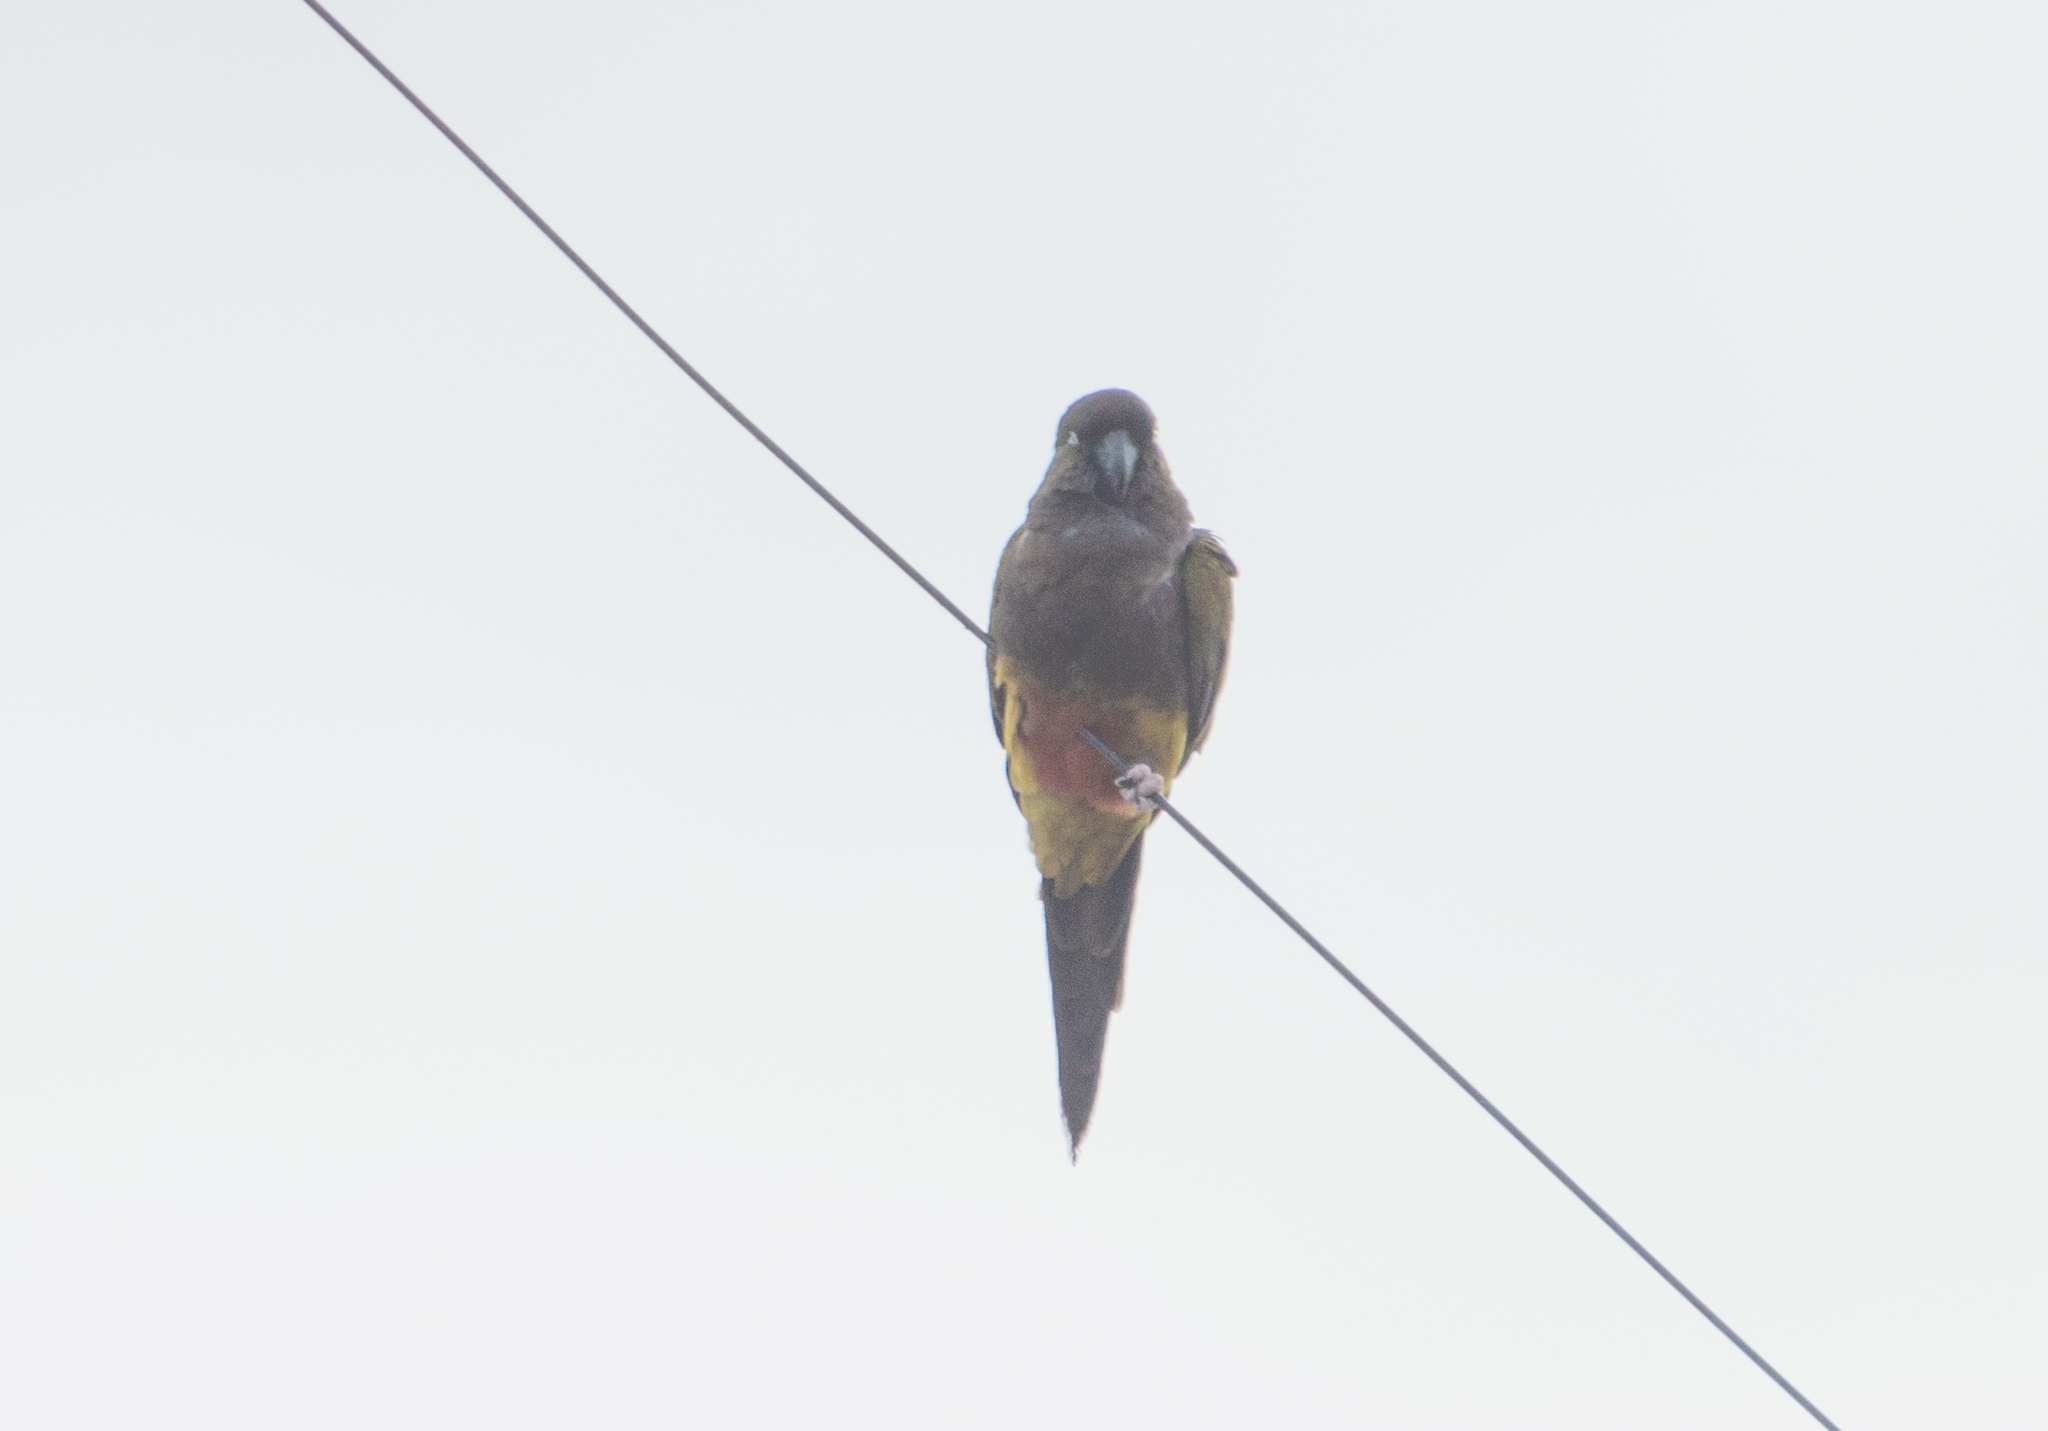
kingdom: Animalia
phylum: Chordata
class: Aves
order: Psittaciformes
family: Psittacidae
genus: Cyanoliseus
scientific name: Cyanoliseus patagonus
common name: Burrowing parrot
